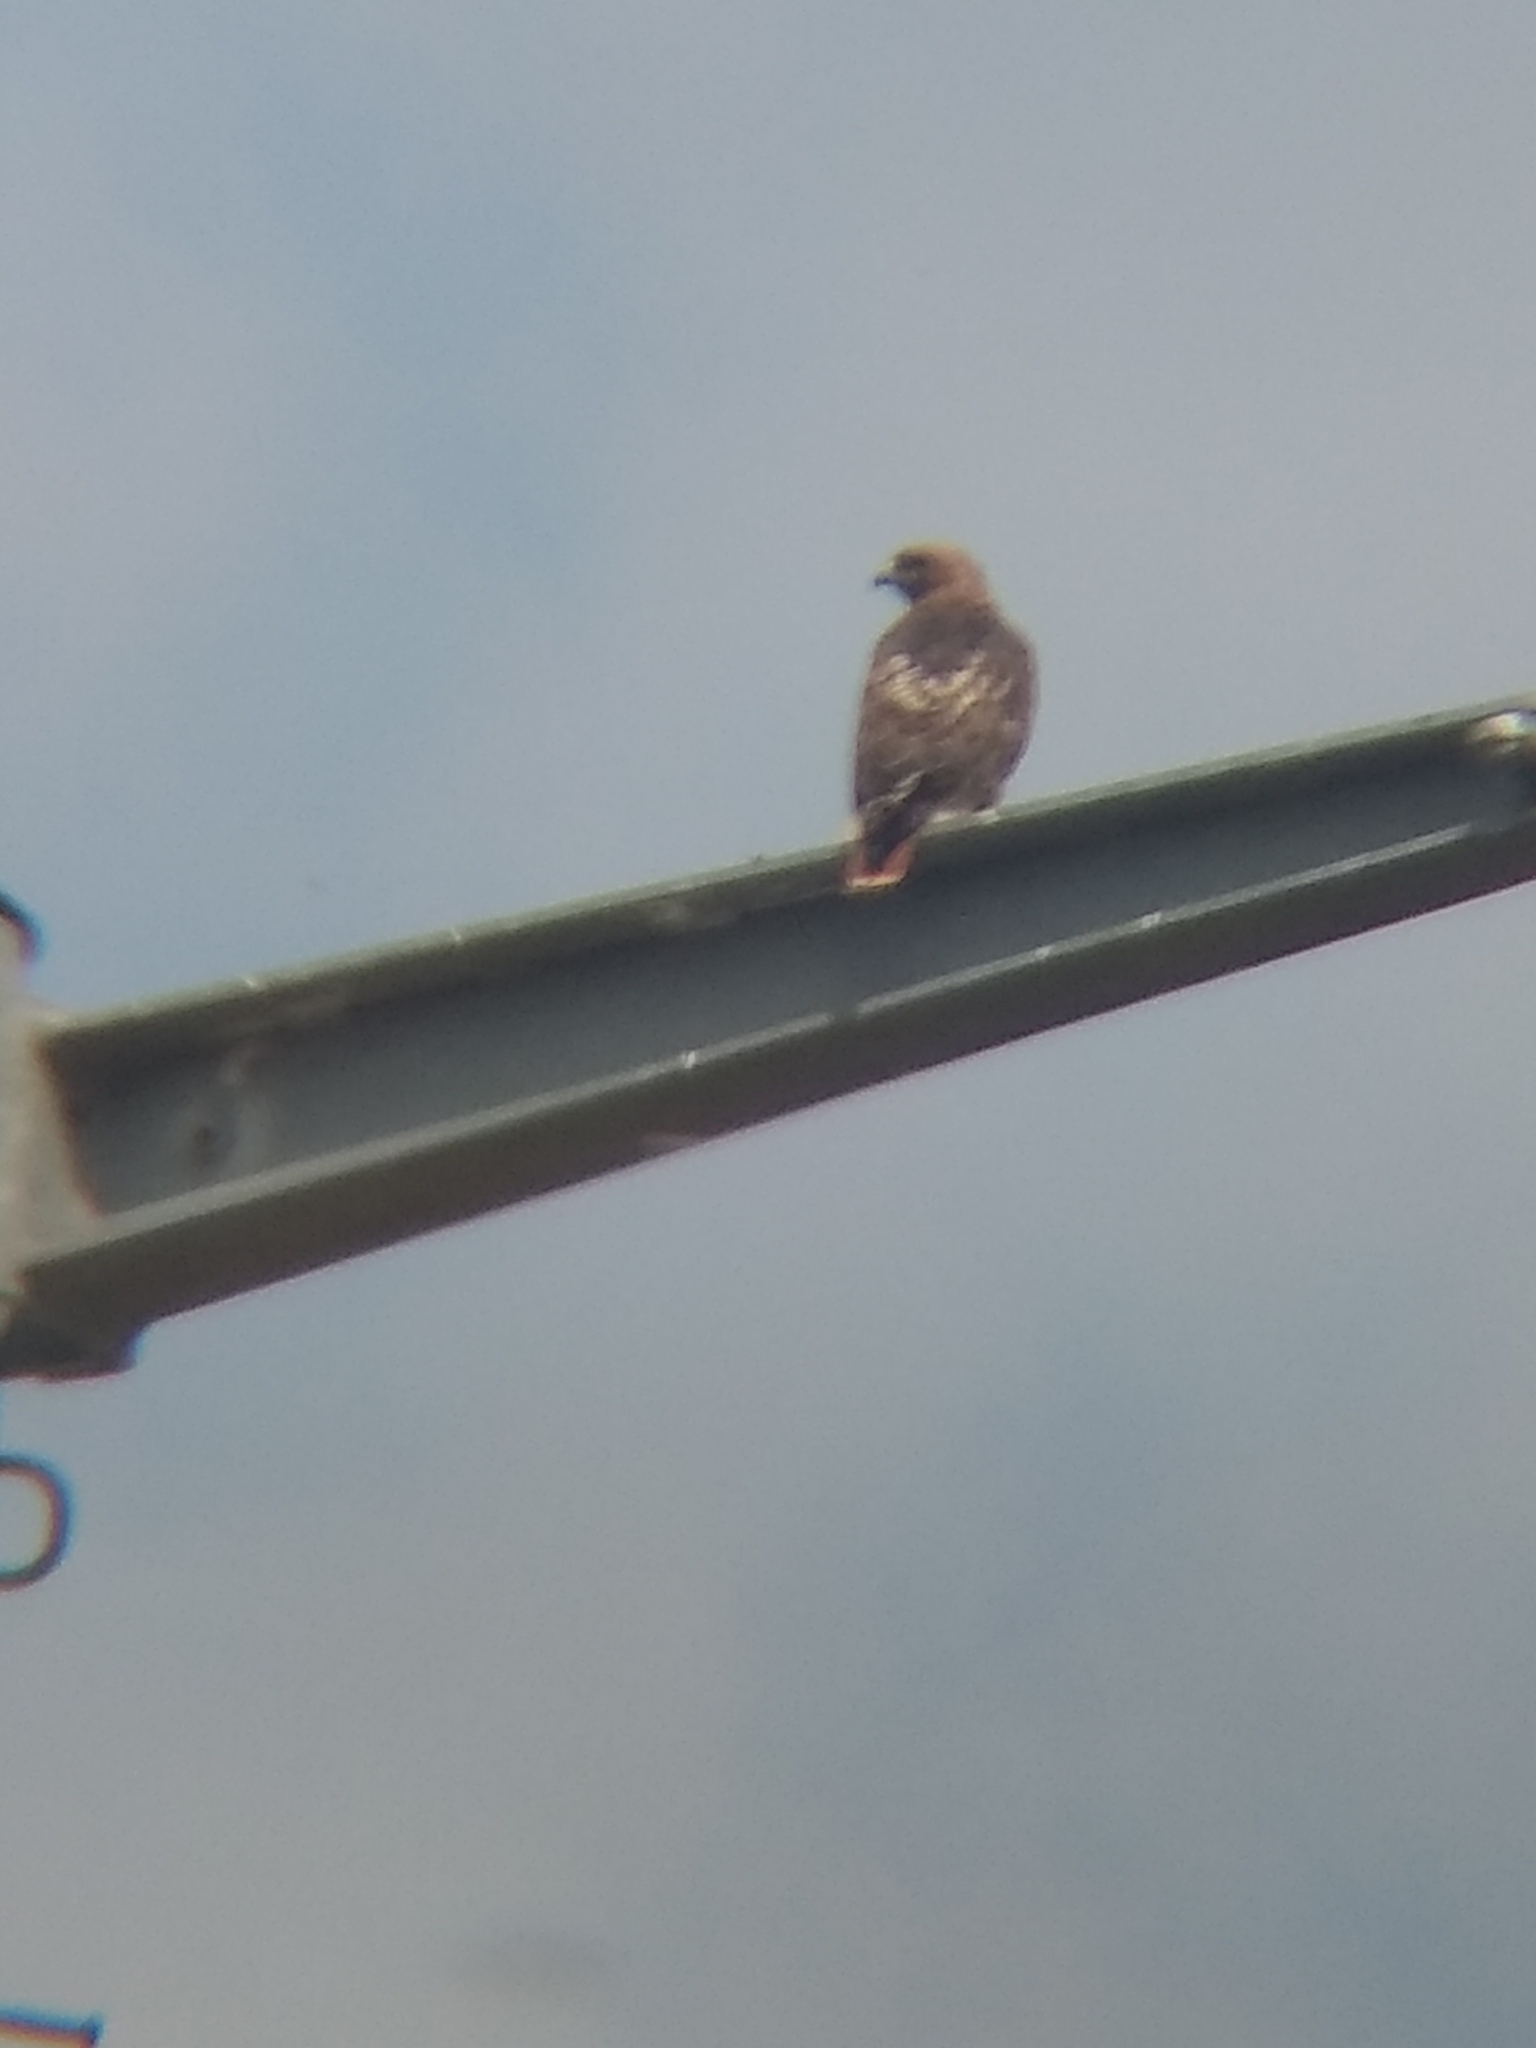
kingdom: Animalia
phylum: Chordata
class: Aves
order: Accipitriformes
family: Accipitridae
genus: Buteo
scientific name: Buteo jamaicensis
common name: Red-tailed hawk
